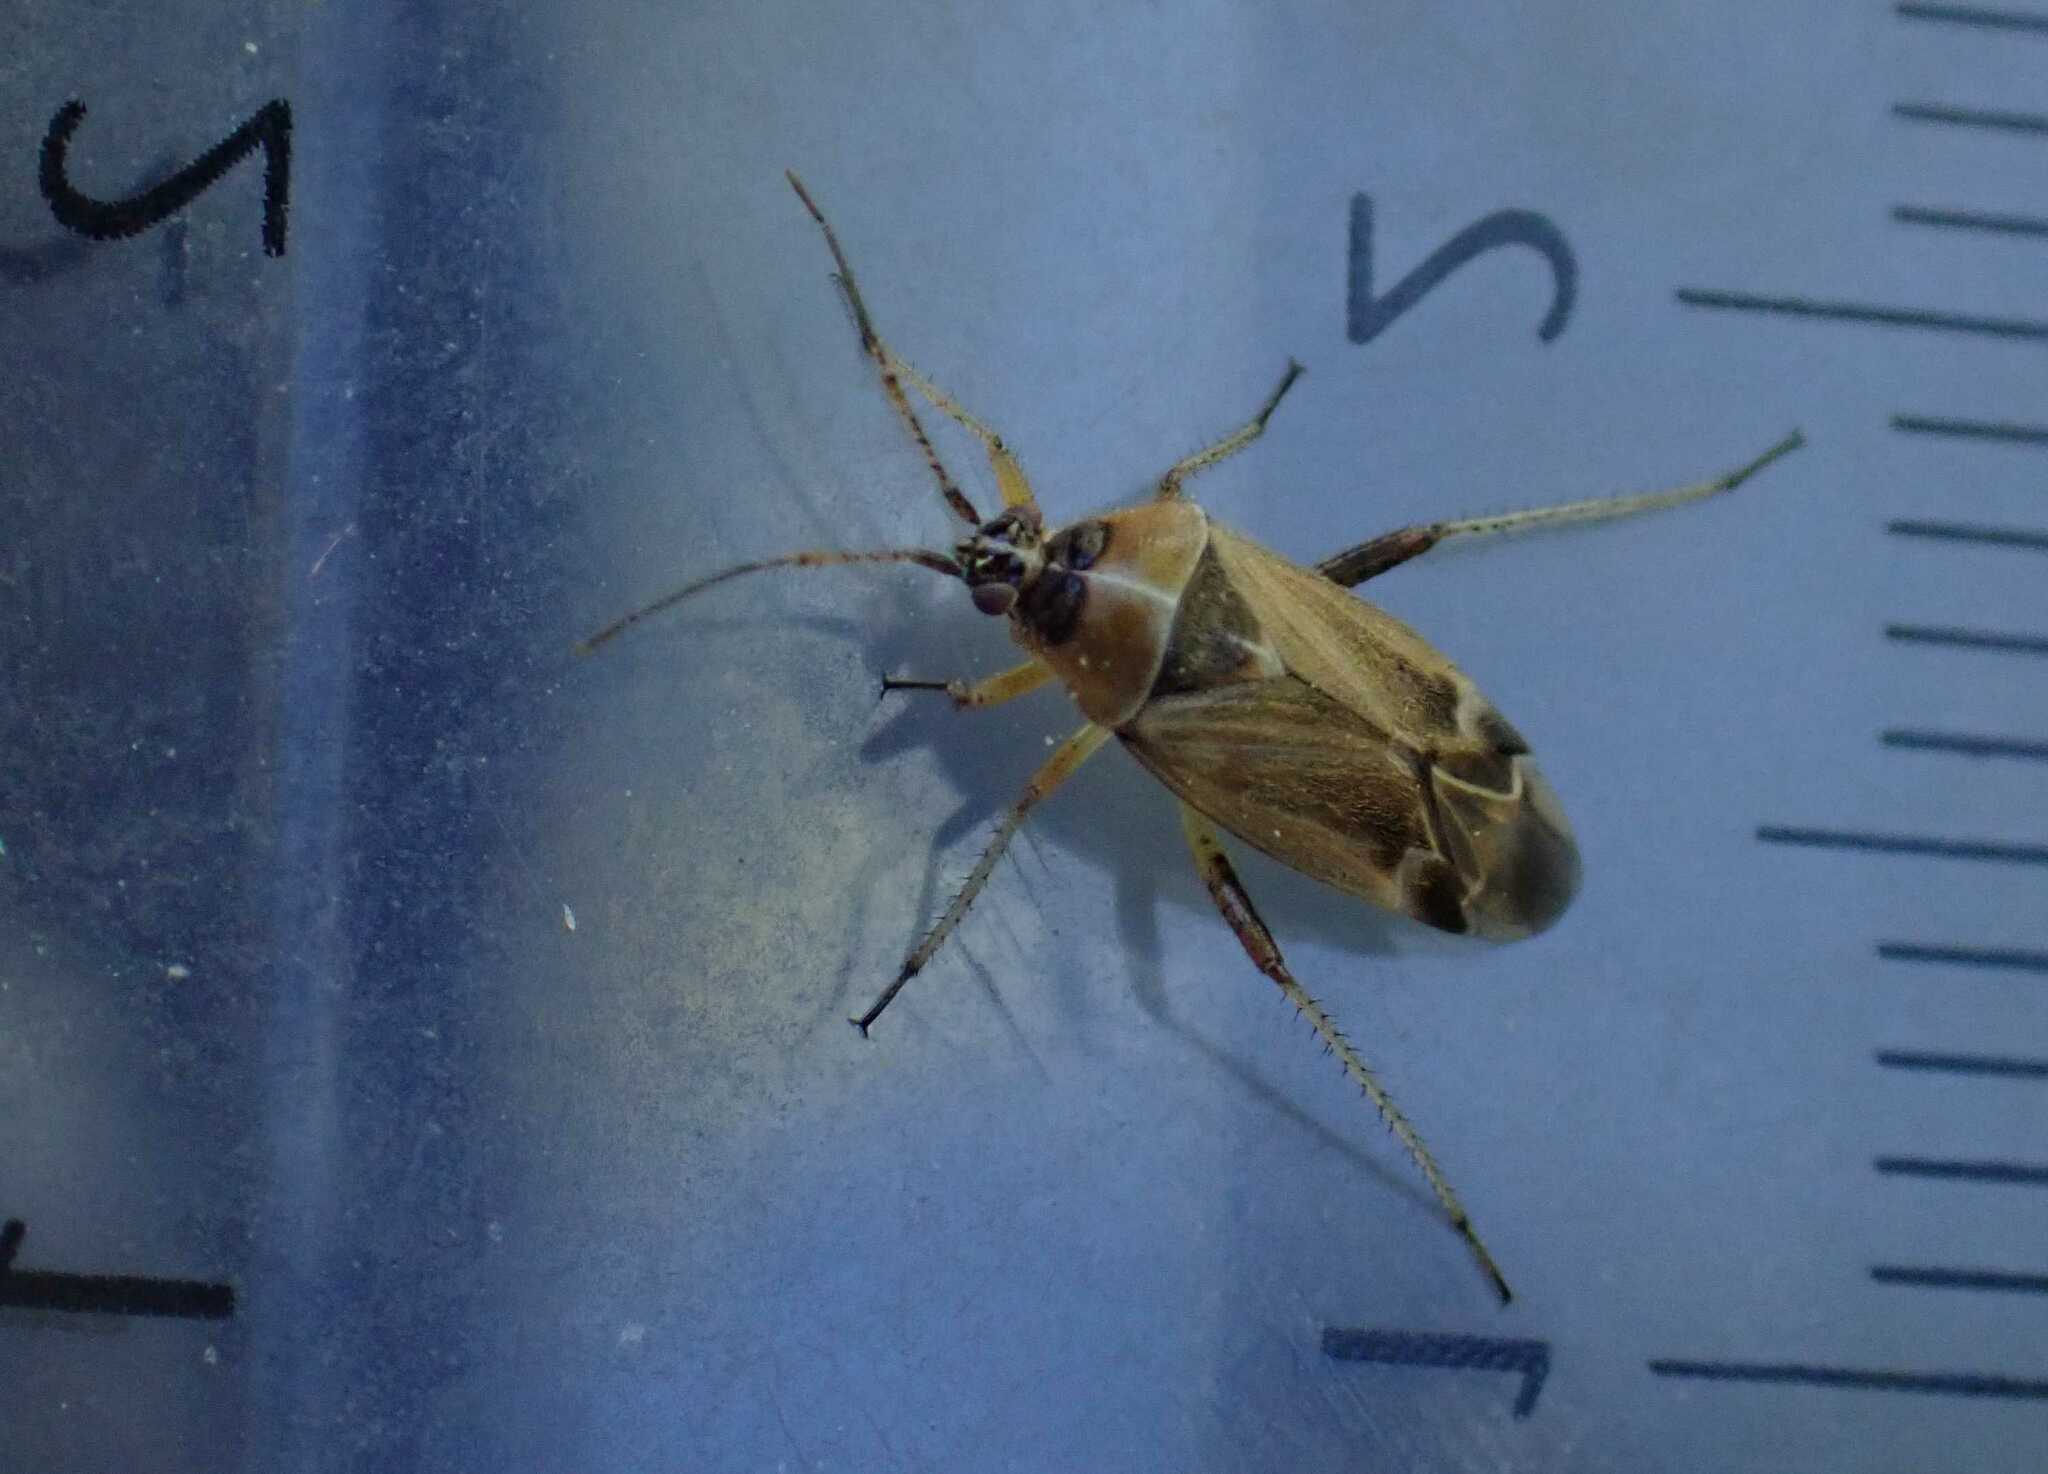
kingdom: Animalia
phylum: Arthropoda
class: Insecta
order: Hemiptera
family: Miridae
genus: Harpocera
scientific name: Harpocera thoracica
